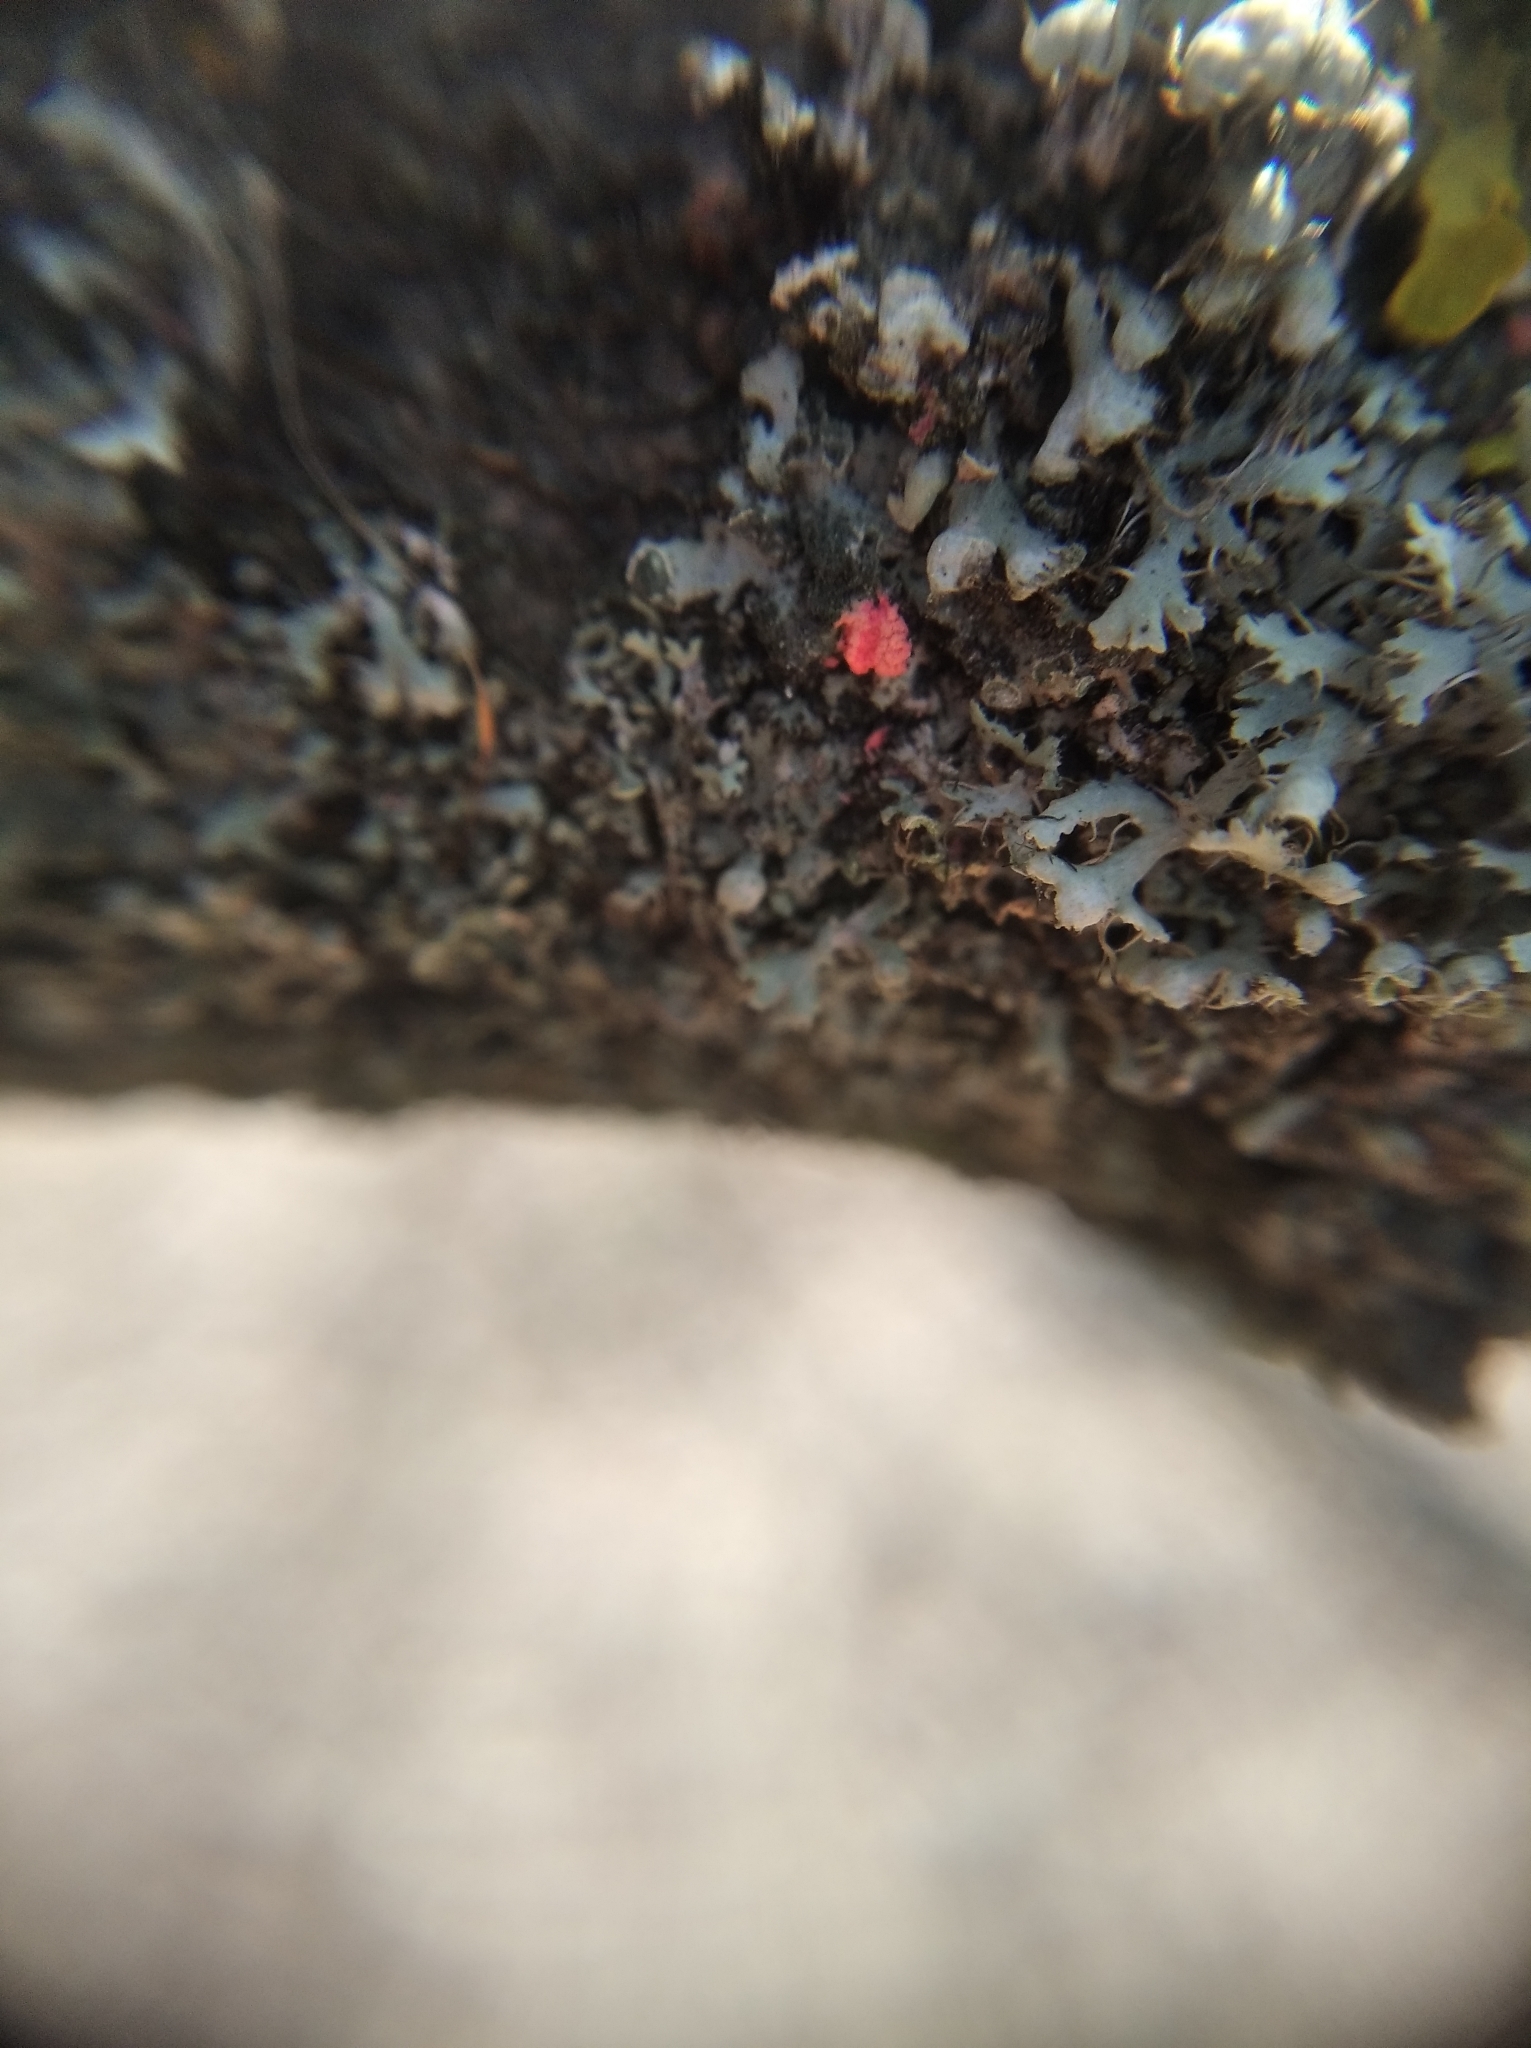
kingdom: Fungi
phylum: Ascomycota
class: Sordariomycetes
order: Hypocreales
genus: Illosporiopsis
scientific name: Illosporiopsis christiansenii
